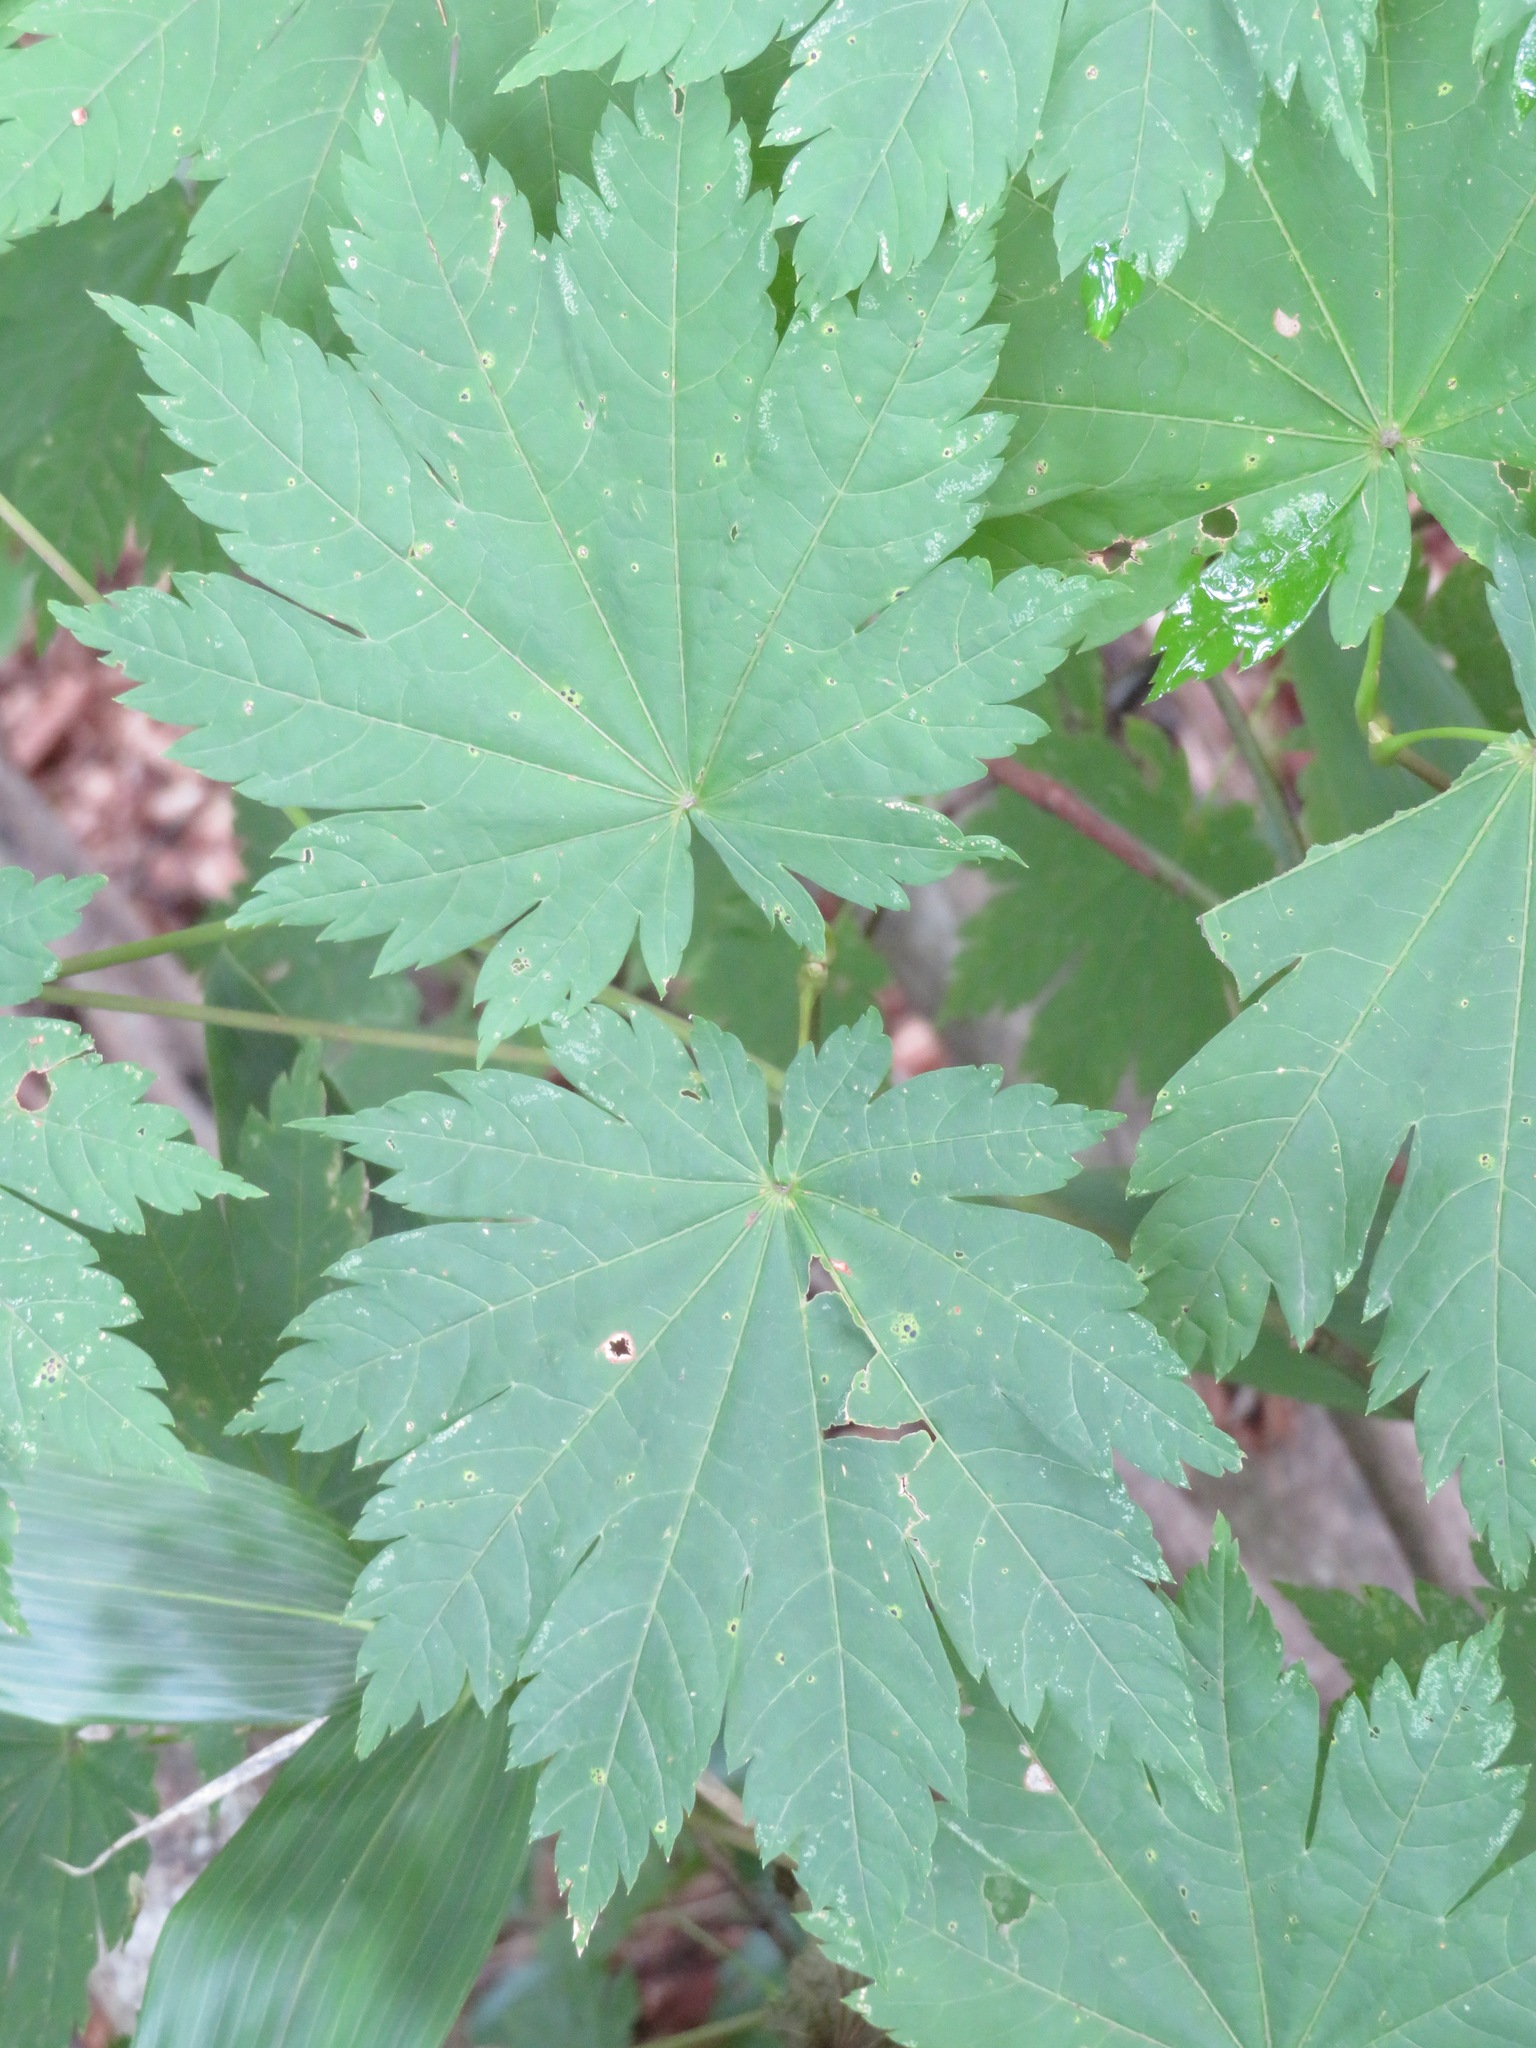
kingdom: Plantae
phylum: Tracheophyta
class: Magnoliopsida
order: Sapindales
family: Sapindaceae
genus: Acer
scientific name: Acer japonicum
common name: Amur maple
